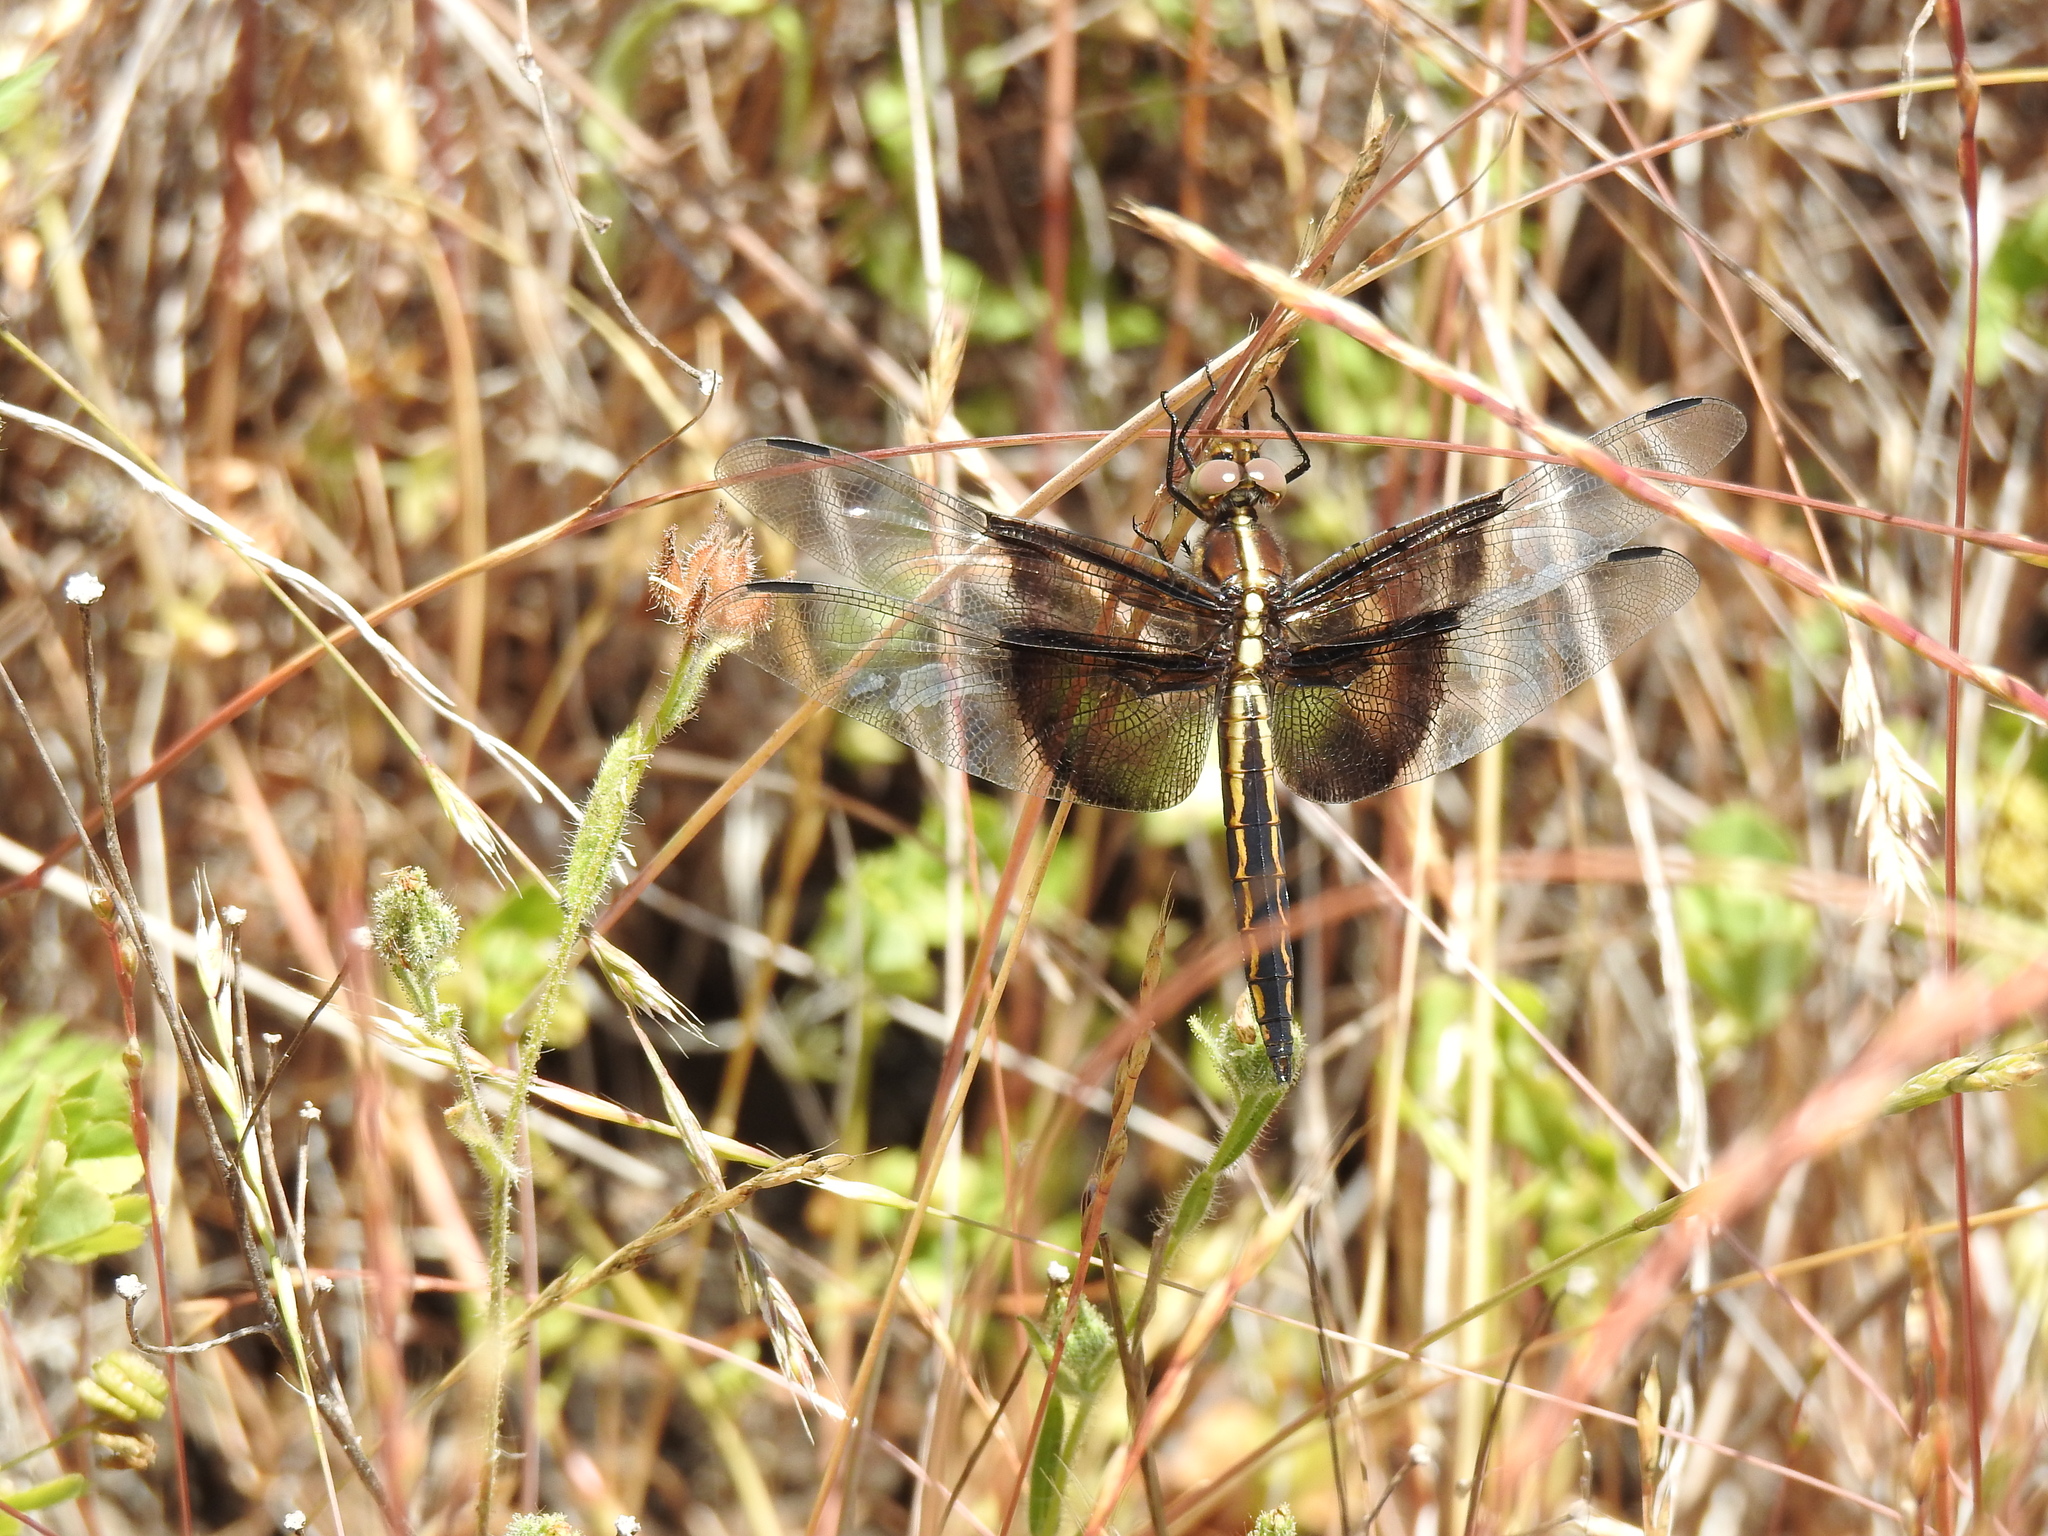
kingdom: Animalia
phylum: Arthropoda
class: Insecta
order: Odonata
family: Libellulidae
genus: Libellula
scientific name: Libellula luctuosa
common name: Widow skimmer
